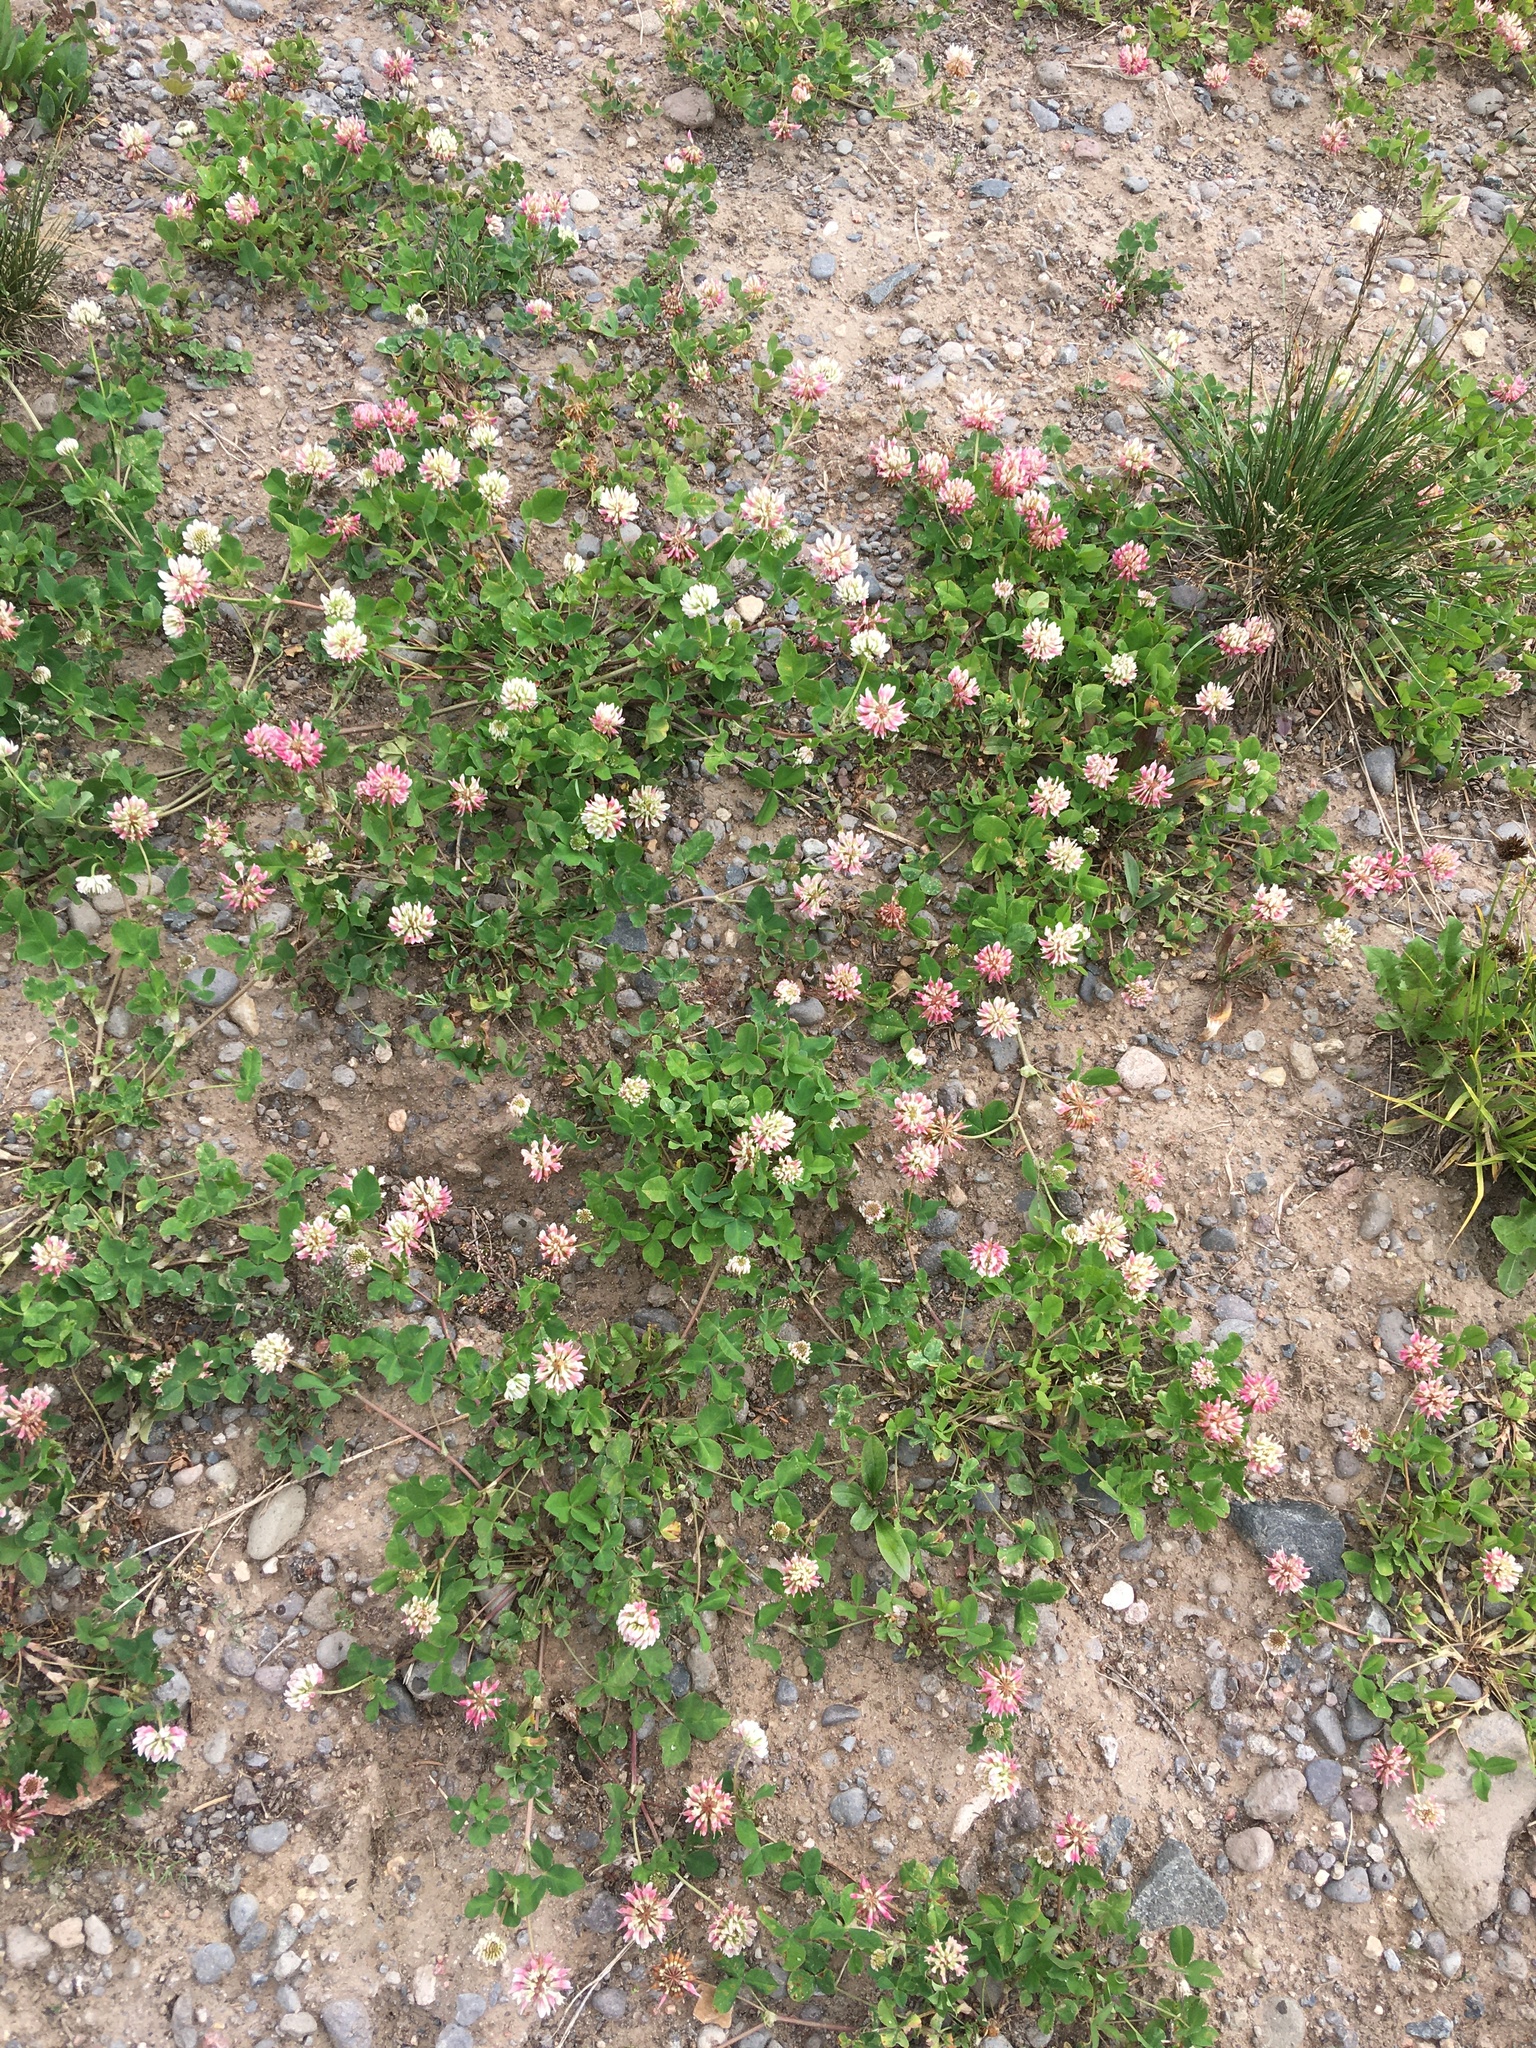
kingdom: Plantae
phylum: Tracheophyta
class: Magnoliopsida
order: Fabales
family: Fabaceae
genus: Trifolium
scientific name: Trifolium hybridum
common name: Alsike clover
